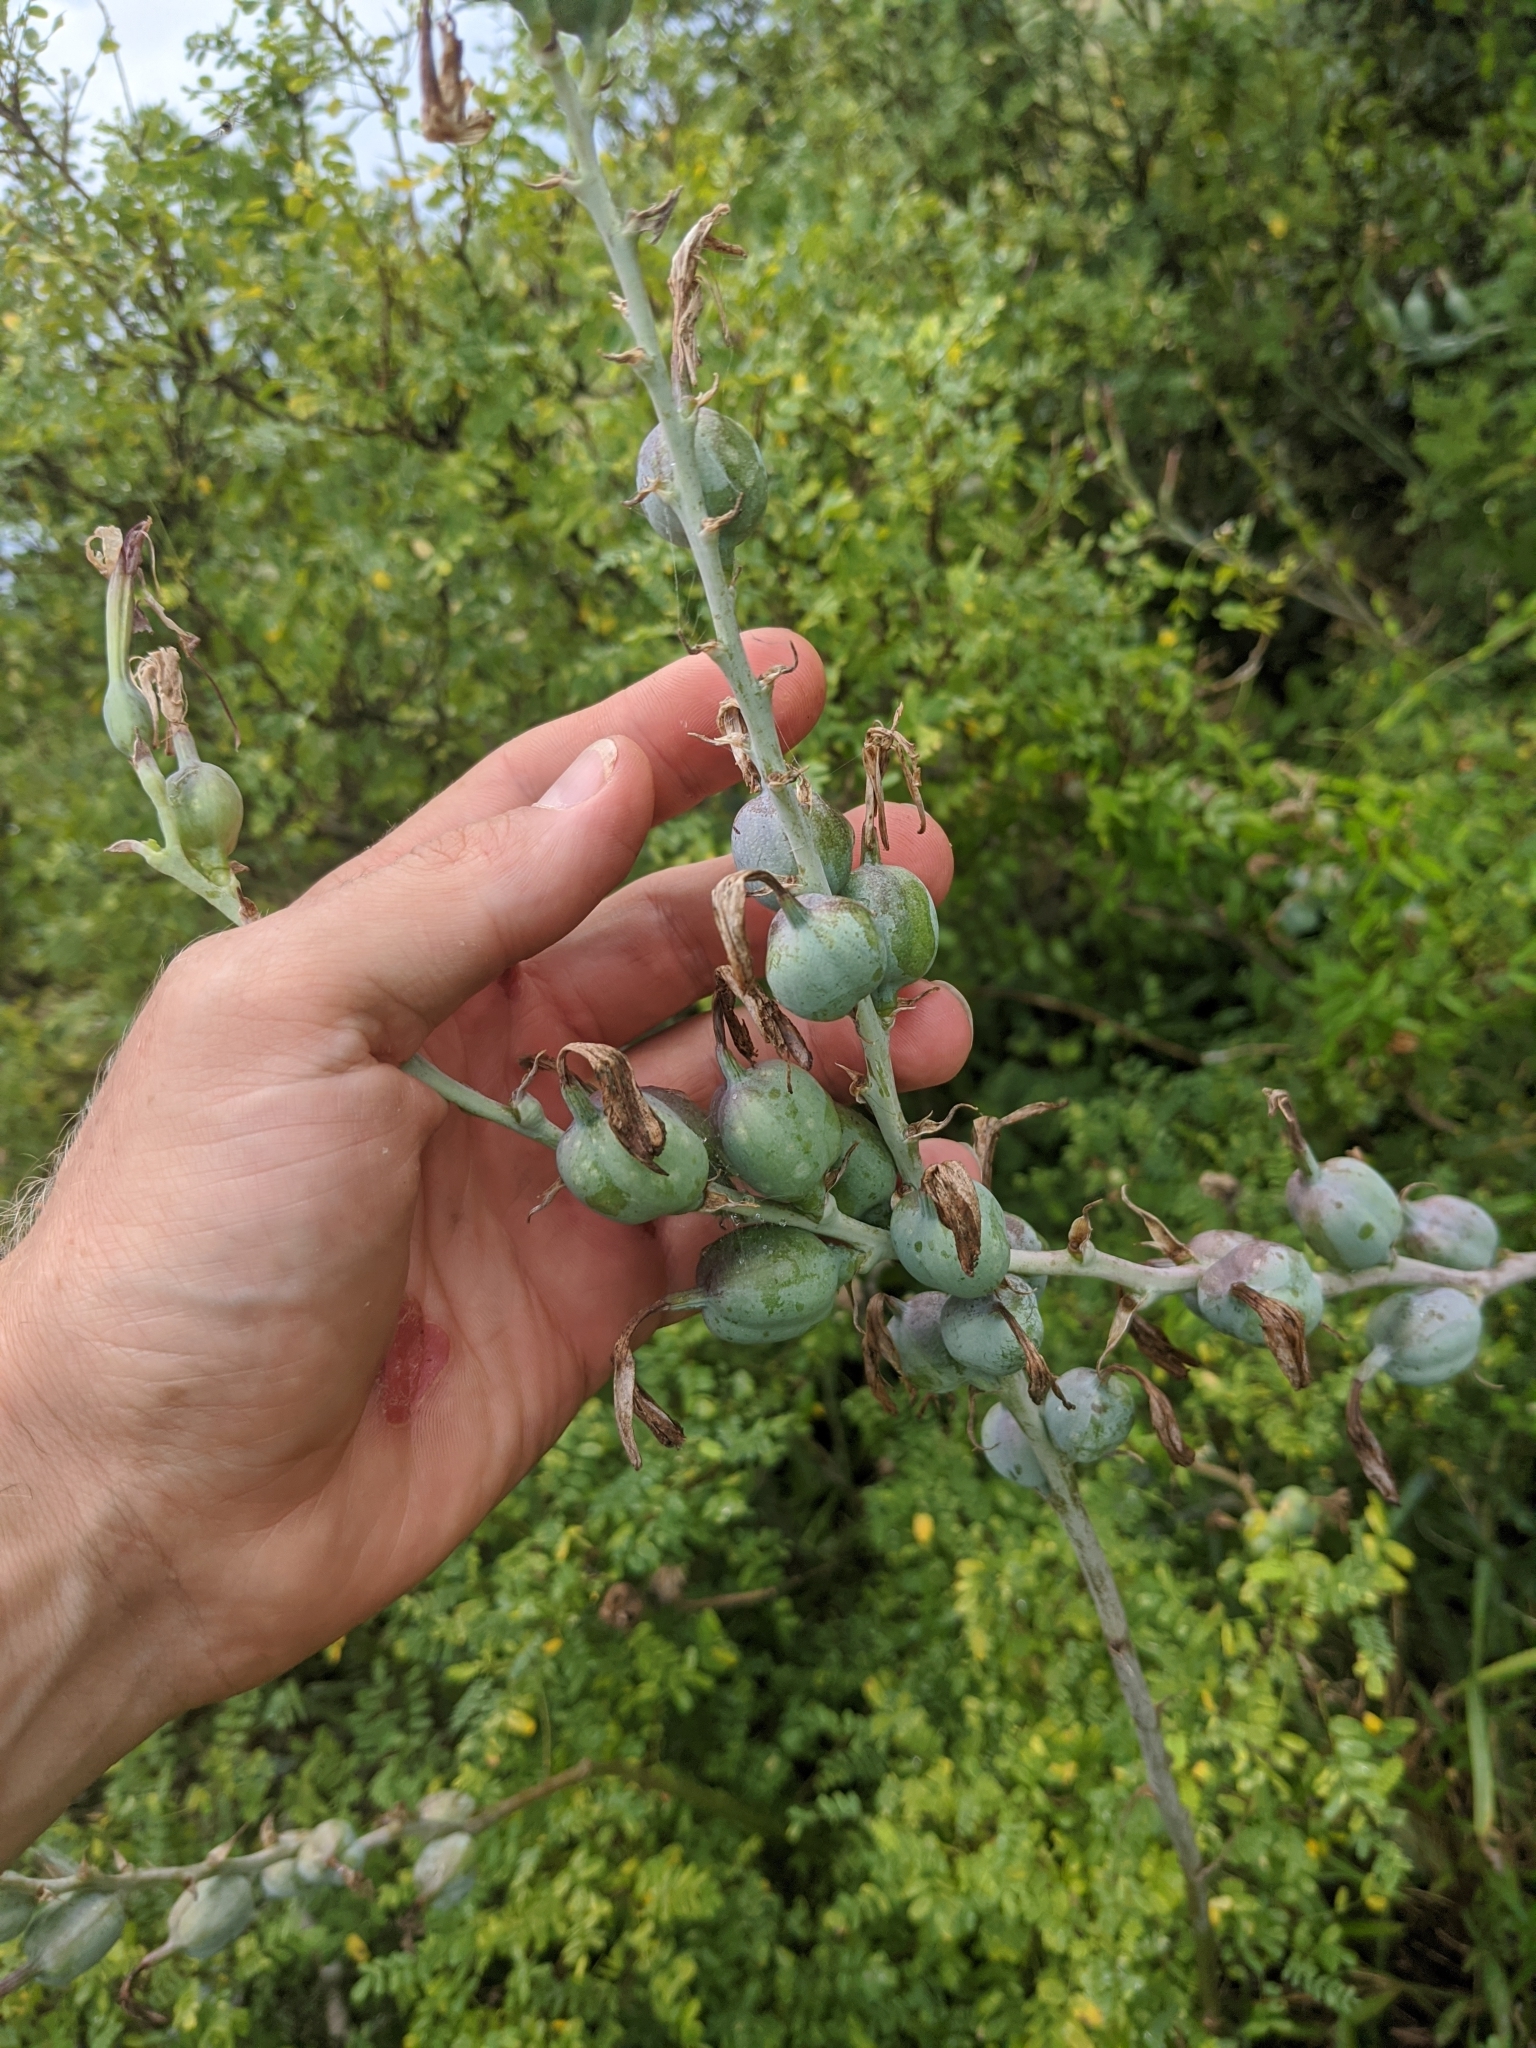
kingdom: Plantae
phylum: Tracheophyta
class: Liliopsida
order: Asparagales
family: Asparagaceae
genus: Agave
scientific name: Agave maculata
